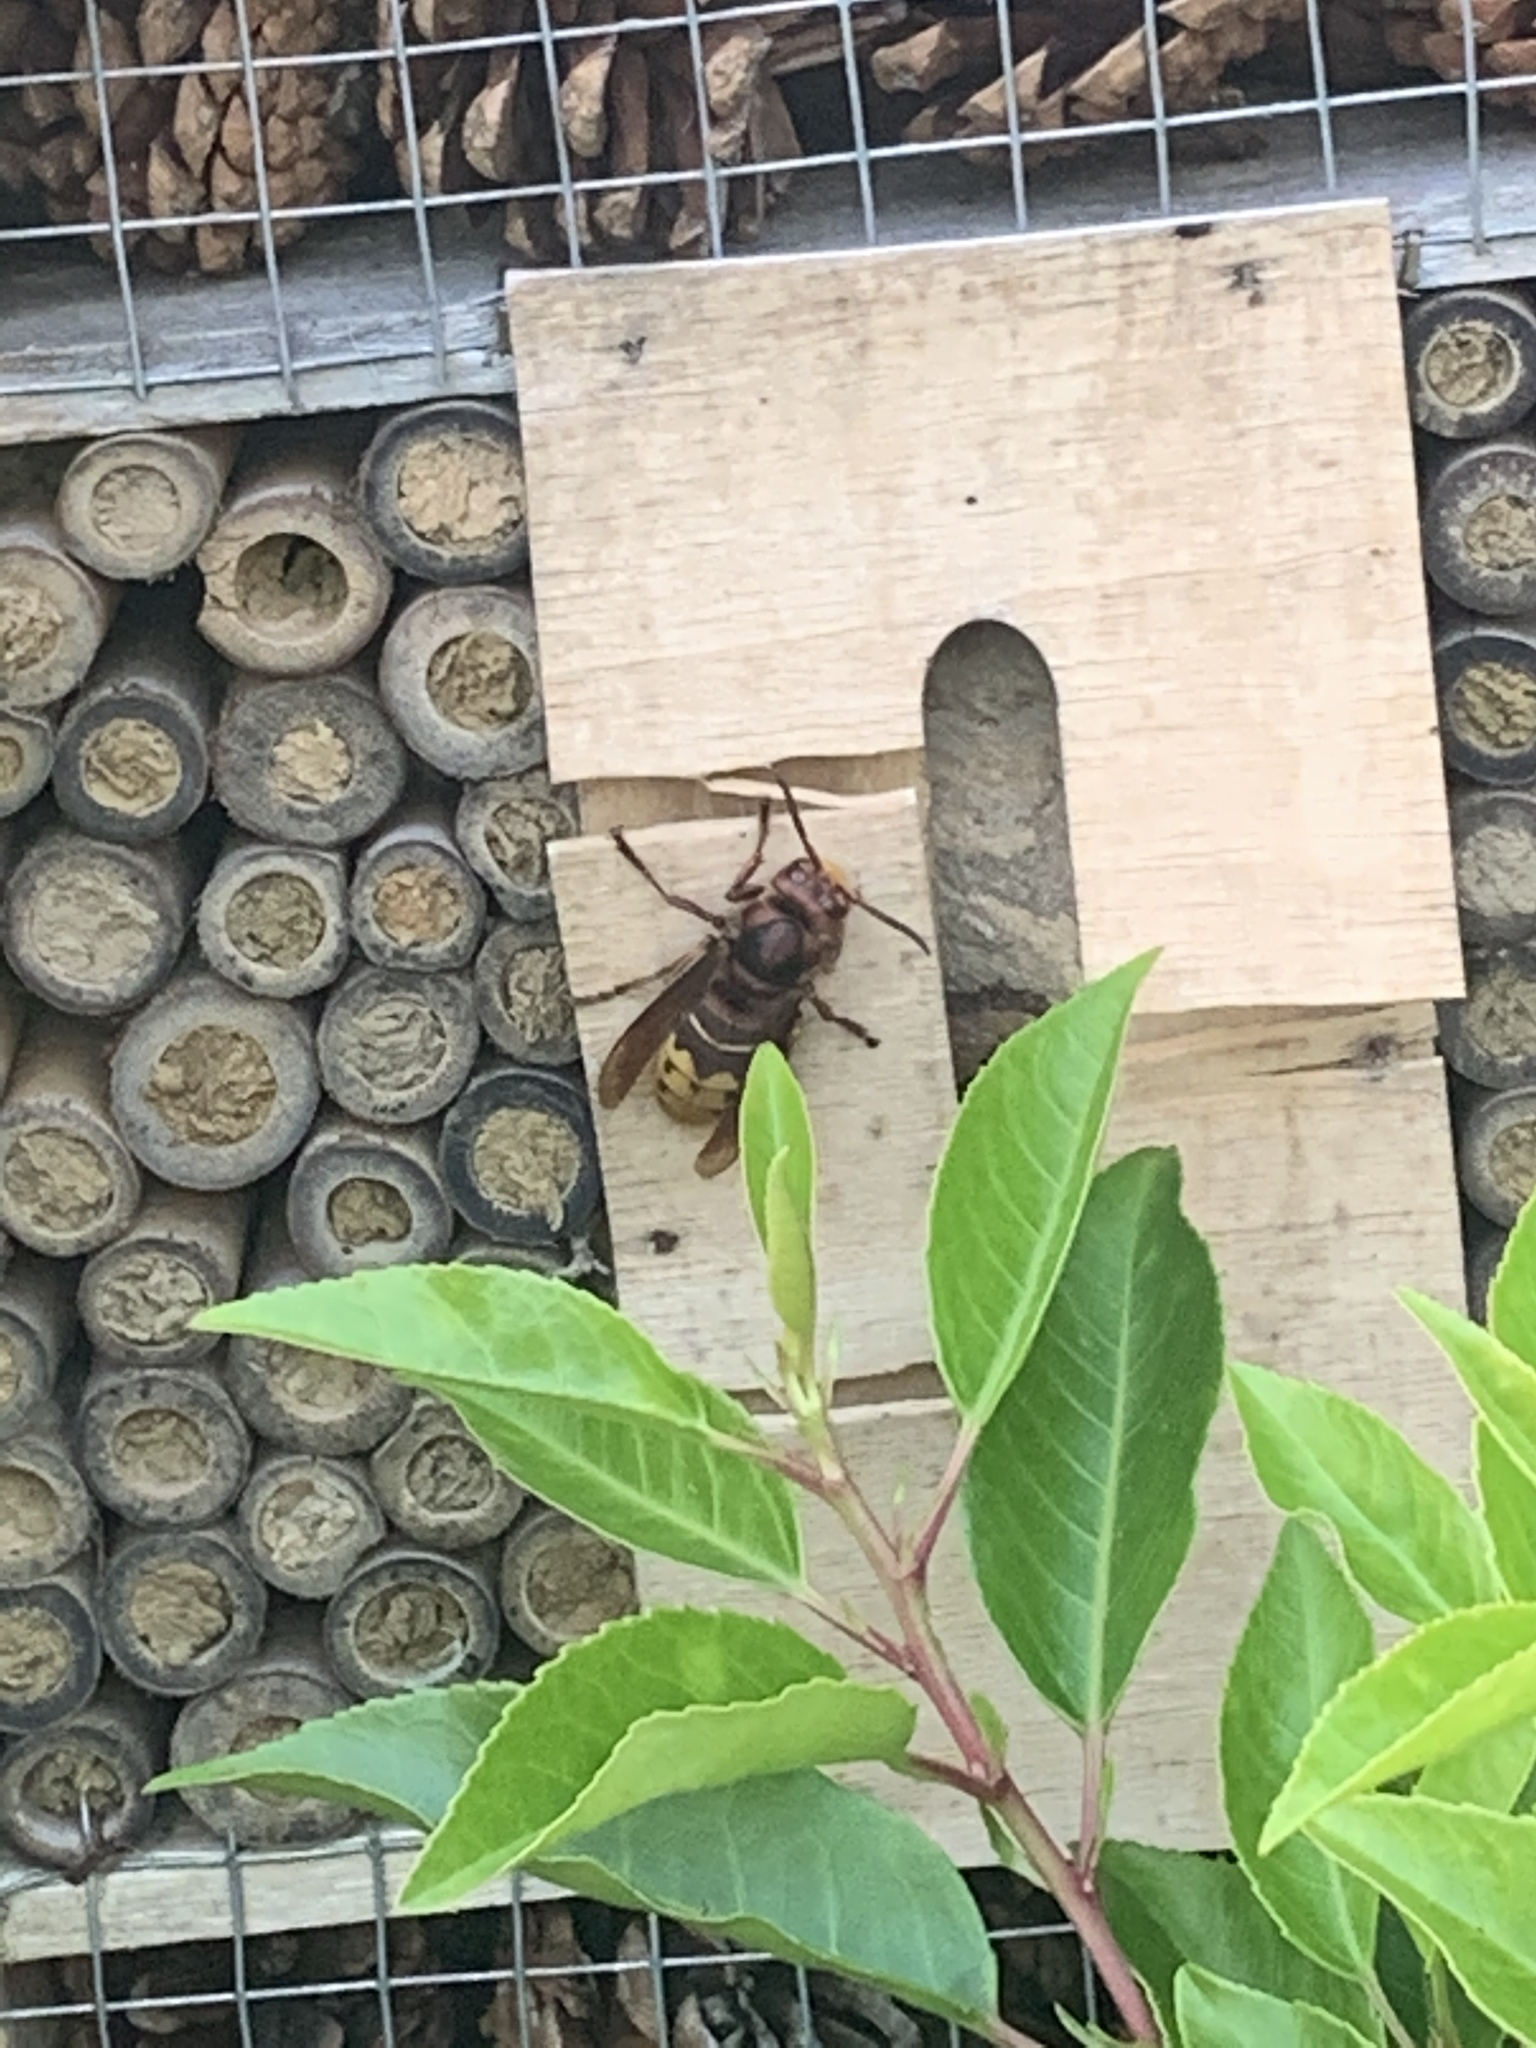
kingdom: Animalia
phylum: Arthropoda
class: Insecta
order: Hymenoptera
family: Vespidae
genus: Vespa
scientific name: Vespa crabro
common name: Hornet
